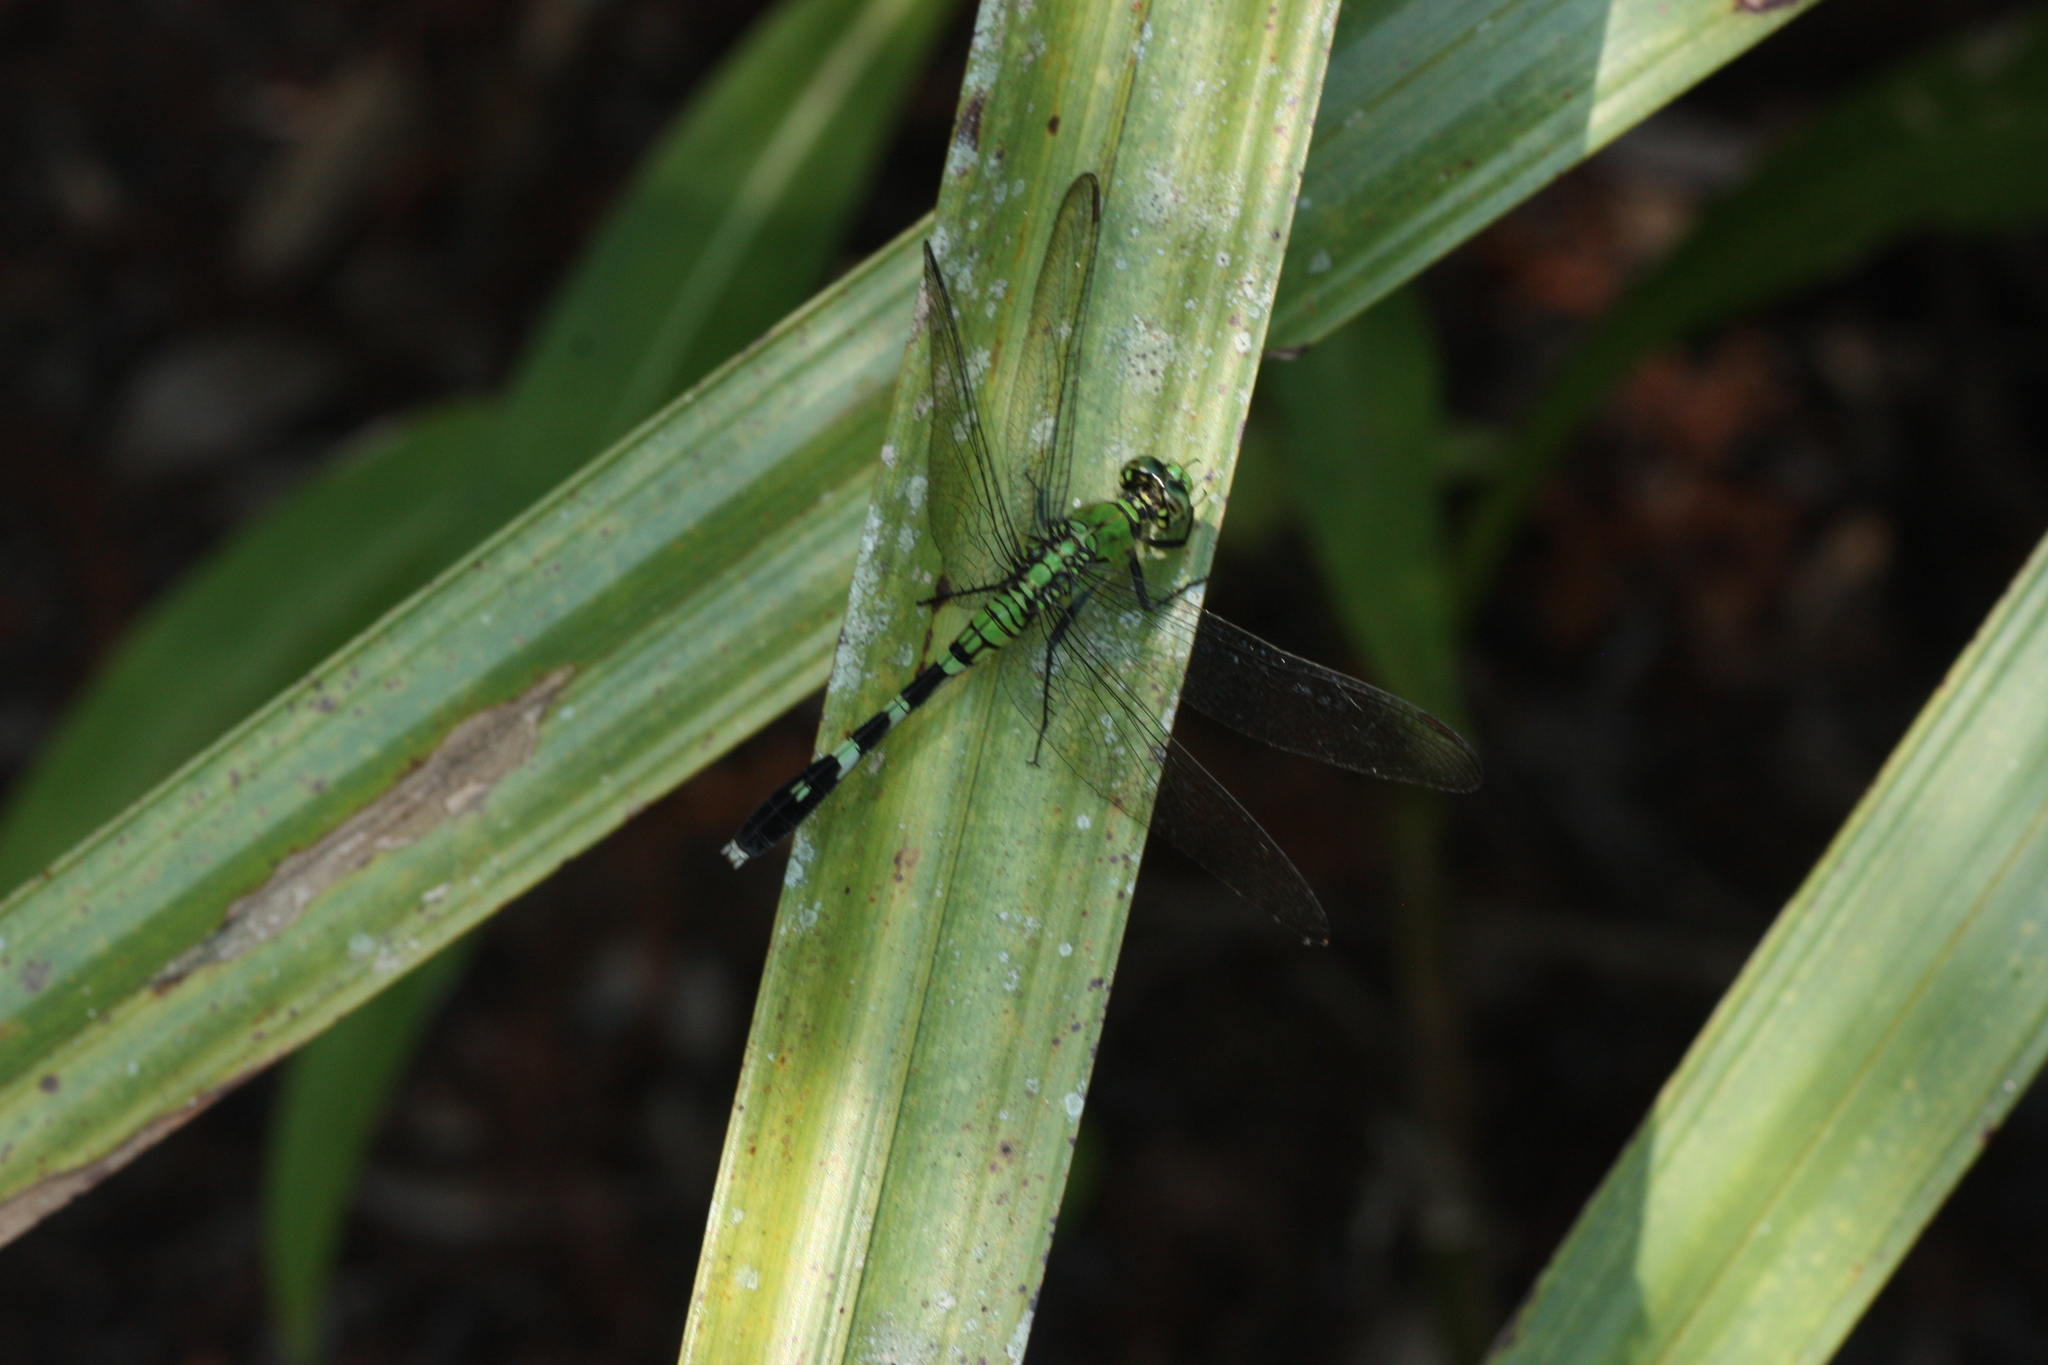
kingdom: Animalia
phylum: Arthropoda
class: Insecta
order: Odonata
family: Libellulidae
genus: Erythemis
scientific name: Erythemis simplicicollis
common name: Eastern pondhawk
